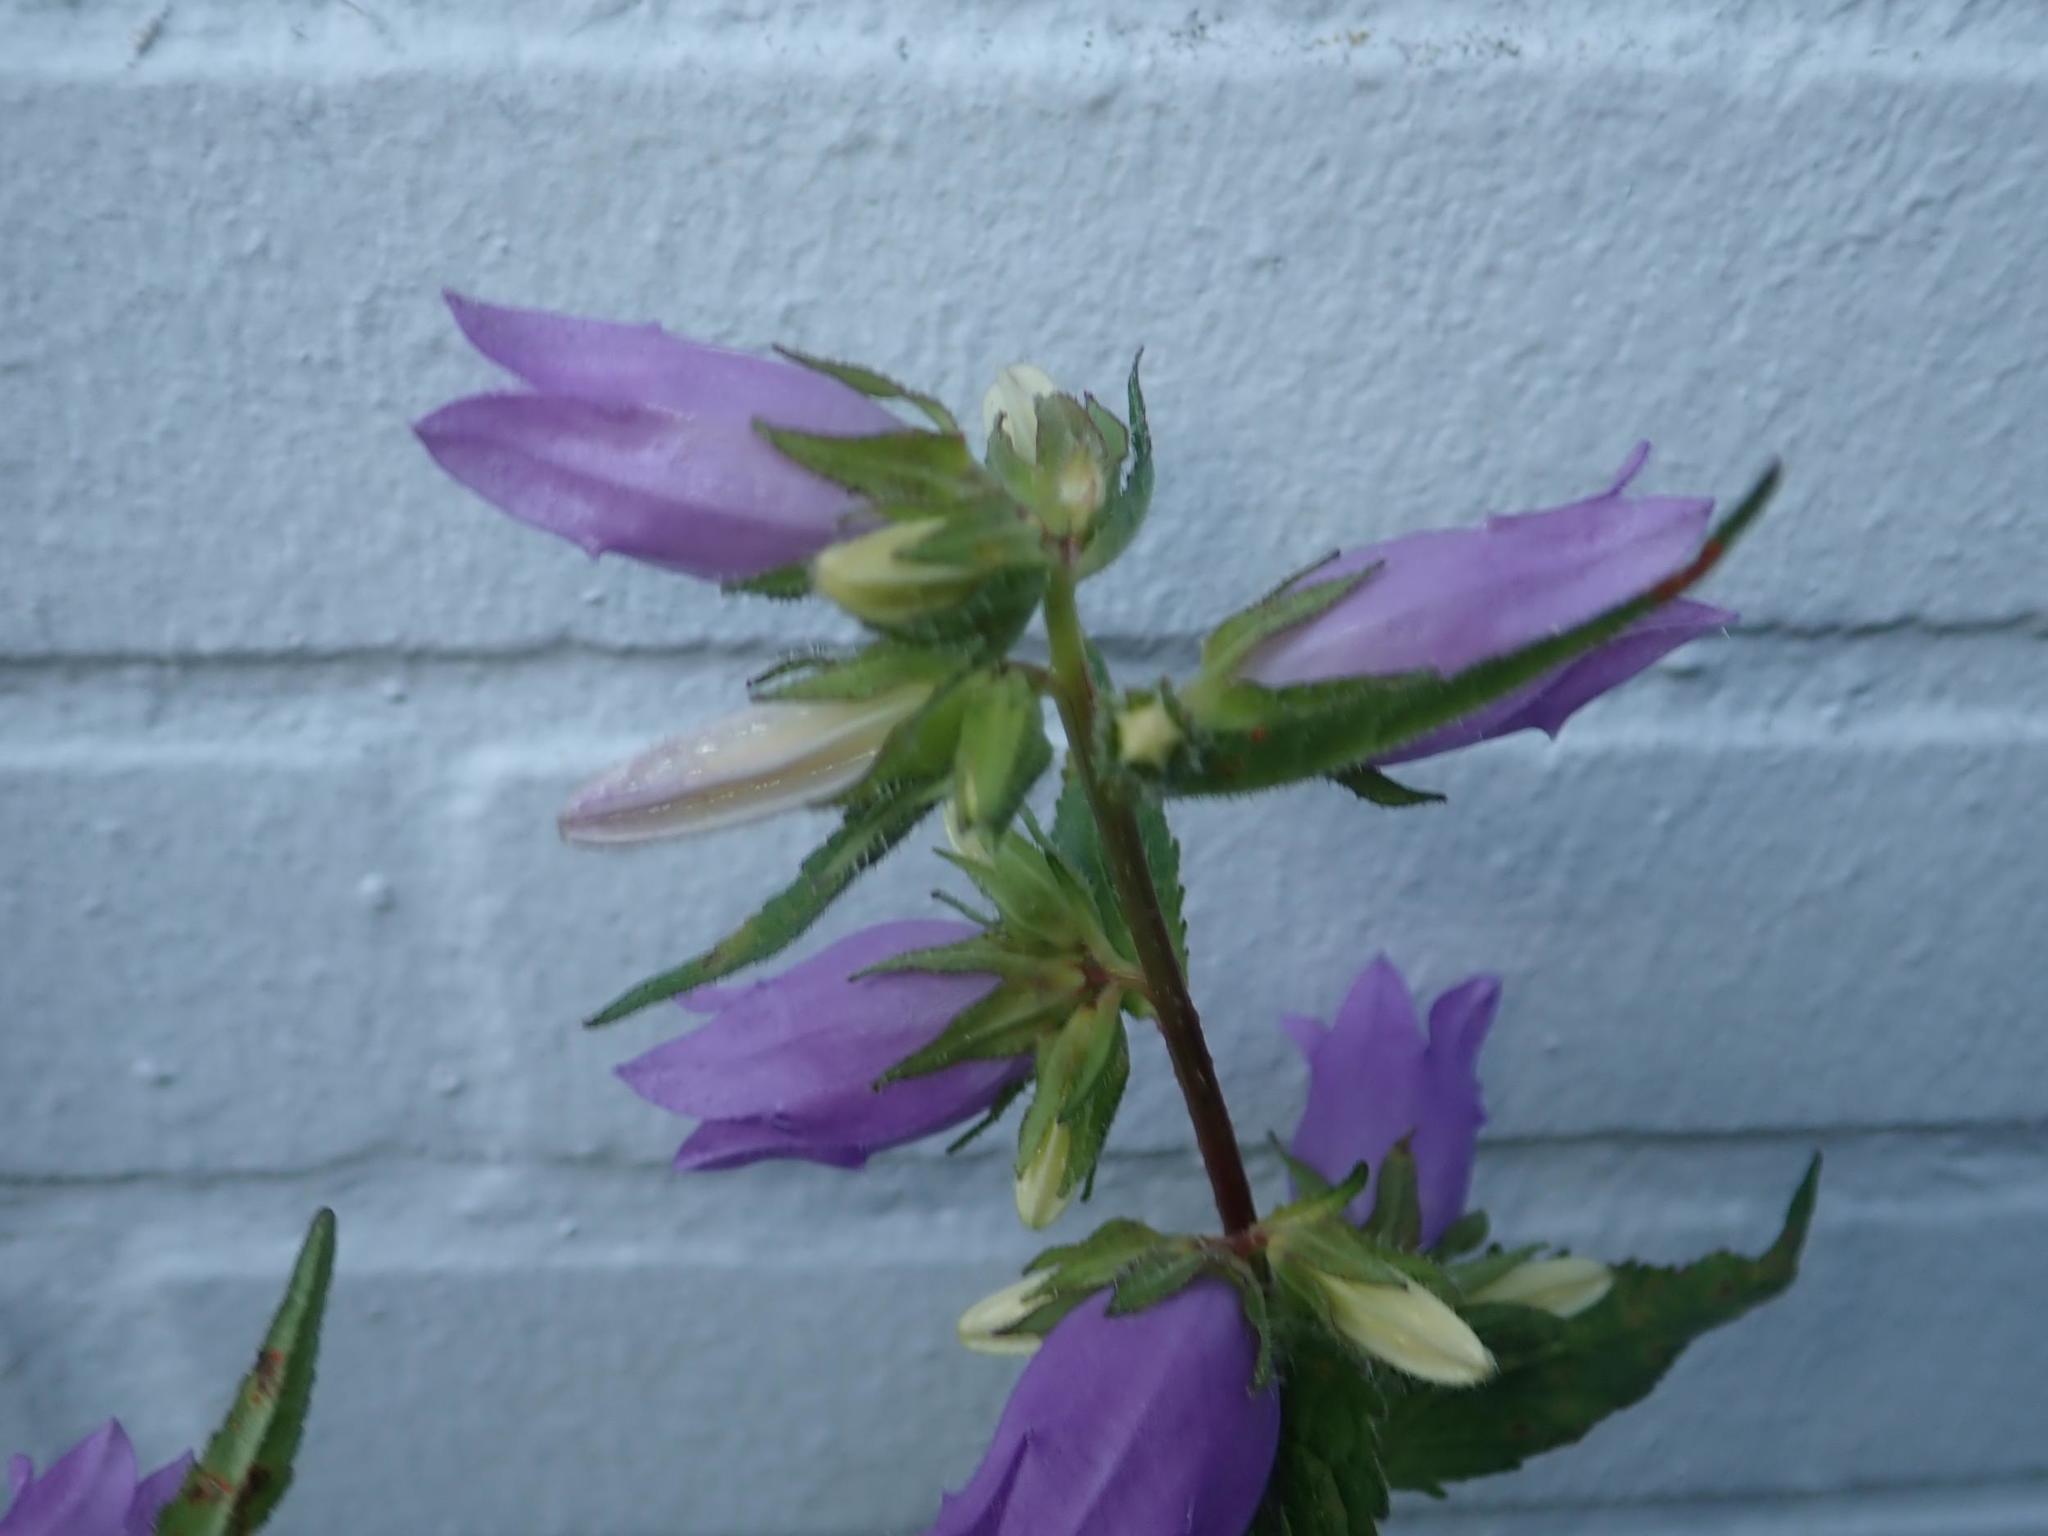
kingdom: Plantae
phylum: Tracheophyta
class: Magnoliopsida
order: Asterales
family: Campanulaceae
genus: Campanula
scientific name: Campanula trachelium
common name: Nettle-leaved bellflower
